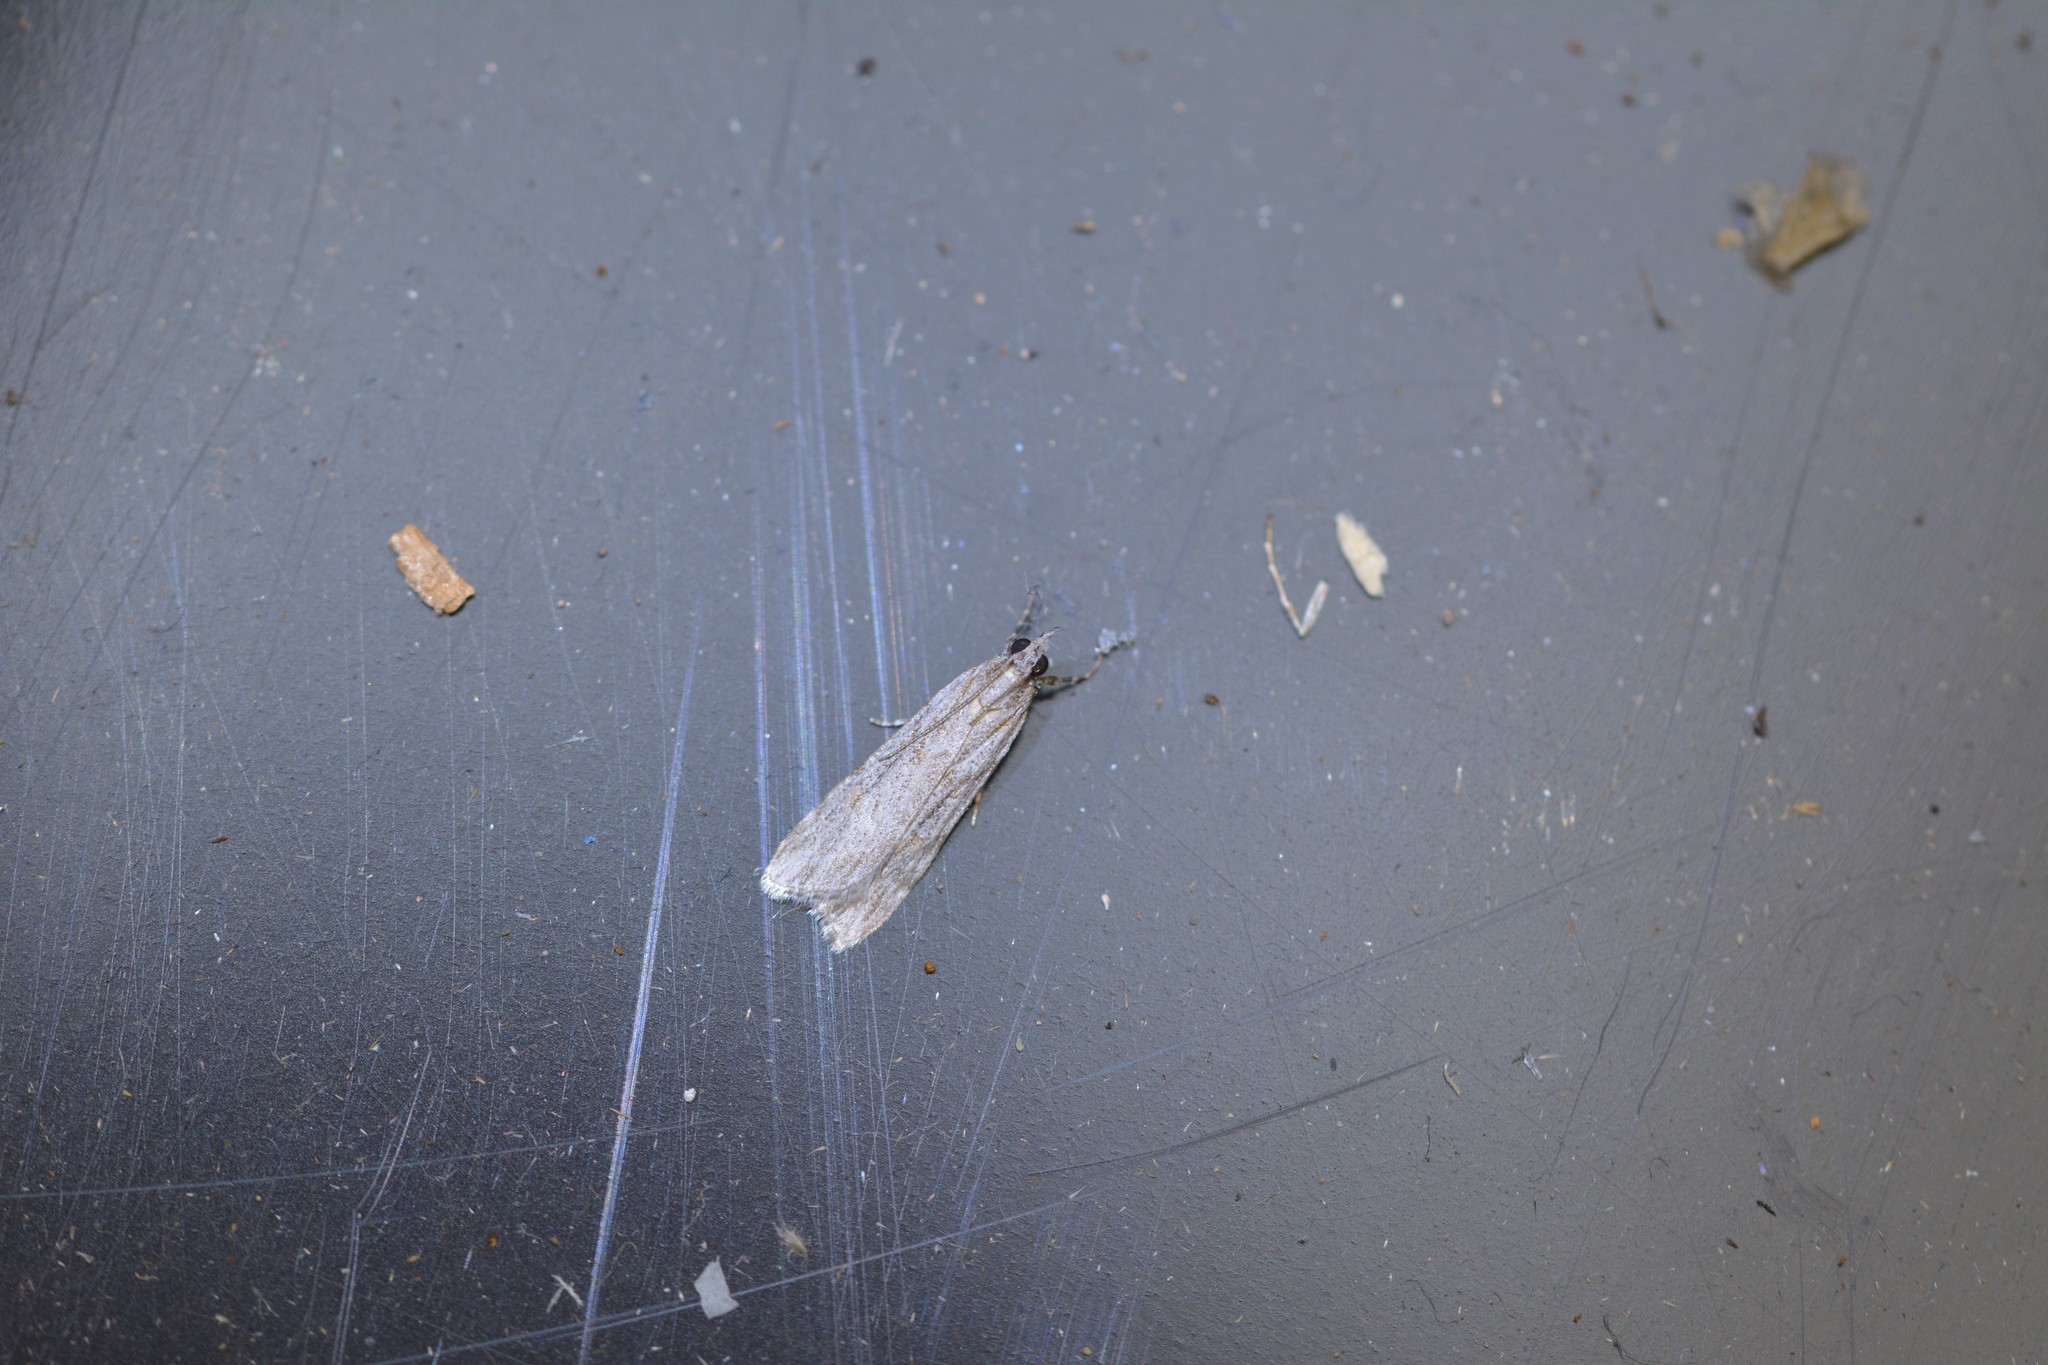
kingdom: Animalia
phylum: Arthropoda
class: Insecta
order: Lepidoptera
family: Crambidae
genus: Scoparia
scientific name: Scoparia chalicodes
